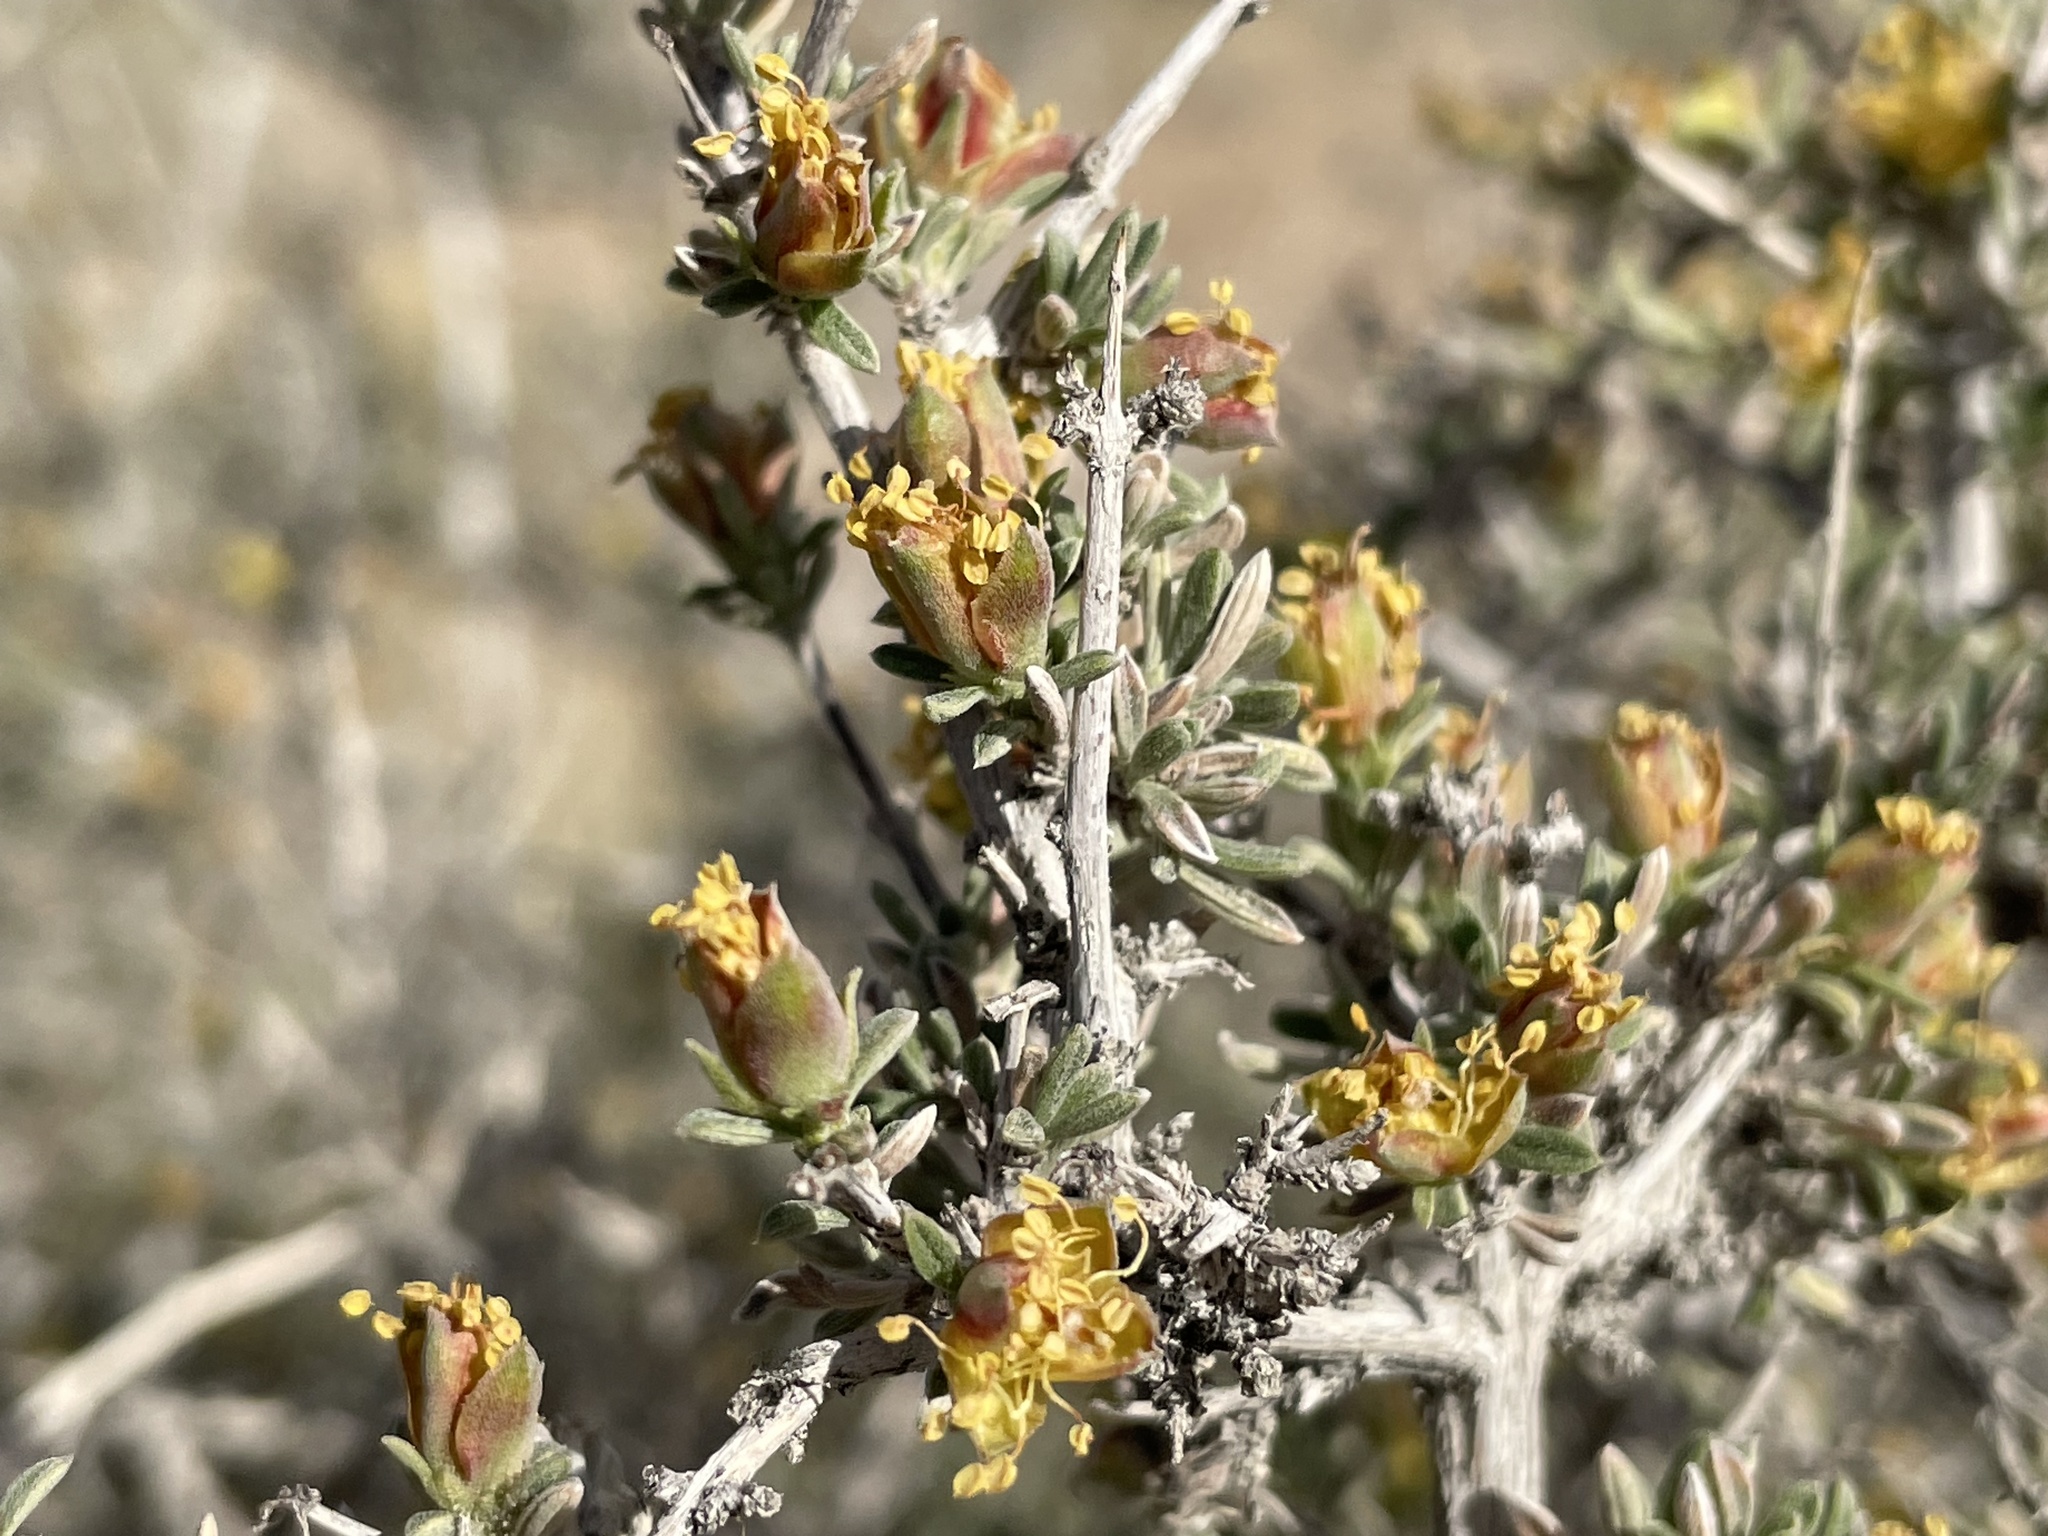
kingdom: Plantae
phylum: Tracheophyta
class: Magnoliopsida
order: Rosales
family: Rosaceae
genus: Coleogyne
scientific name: Coleogyne ramosissima
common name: Blackbrush
